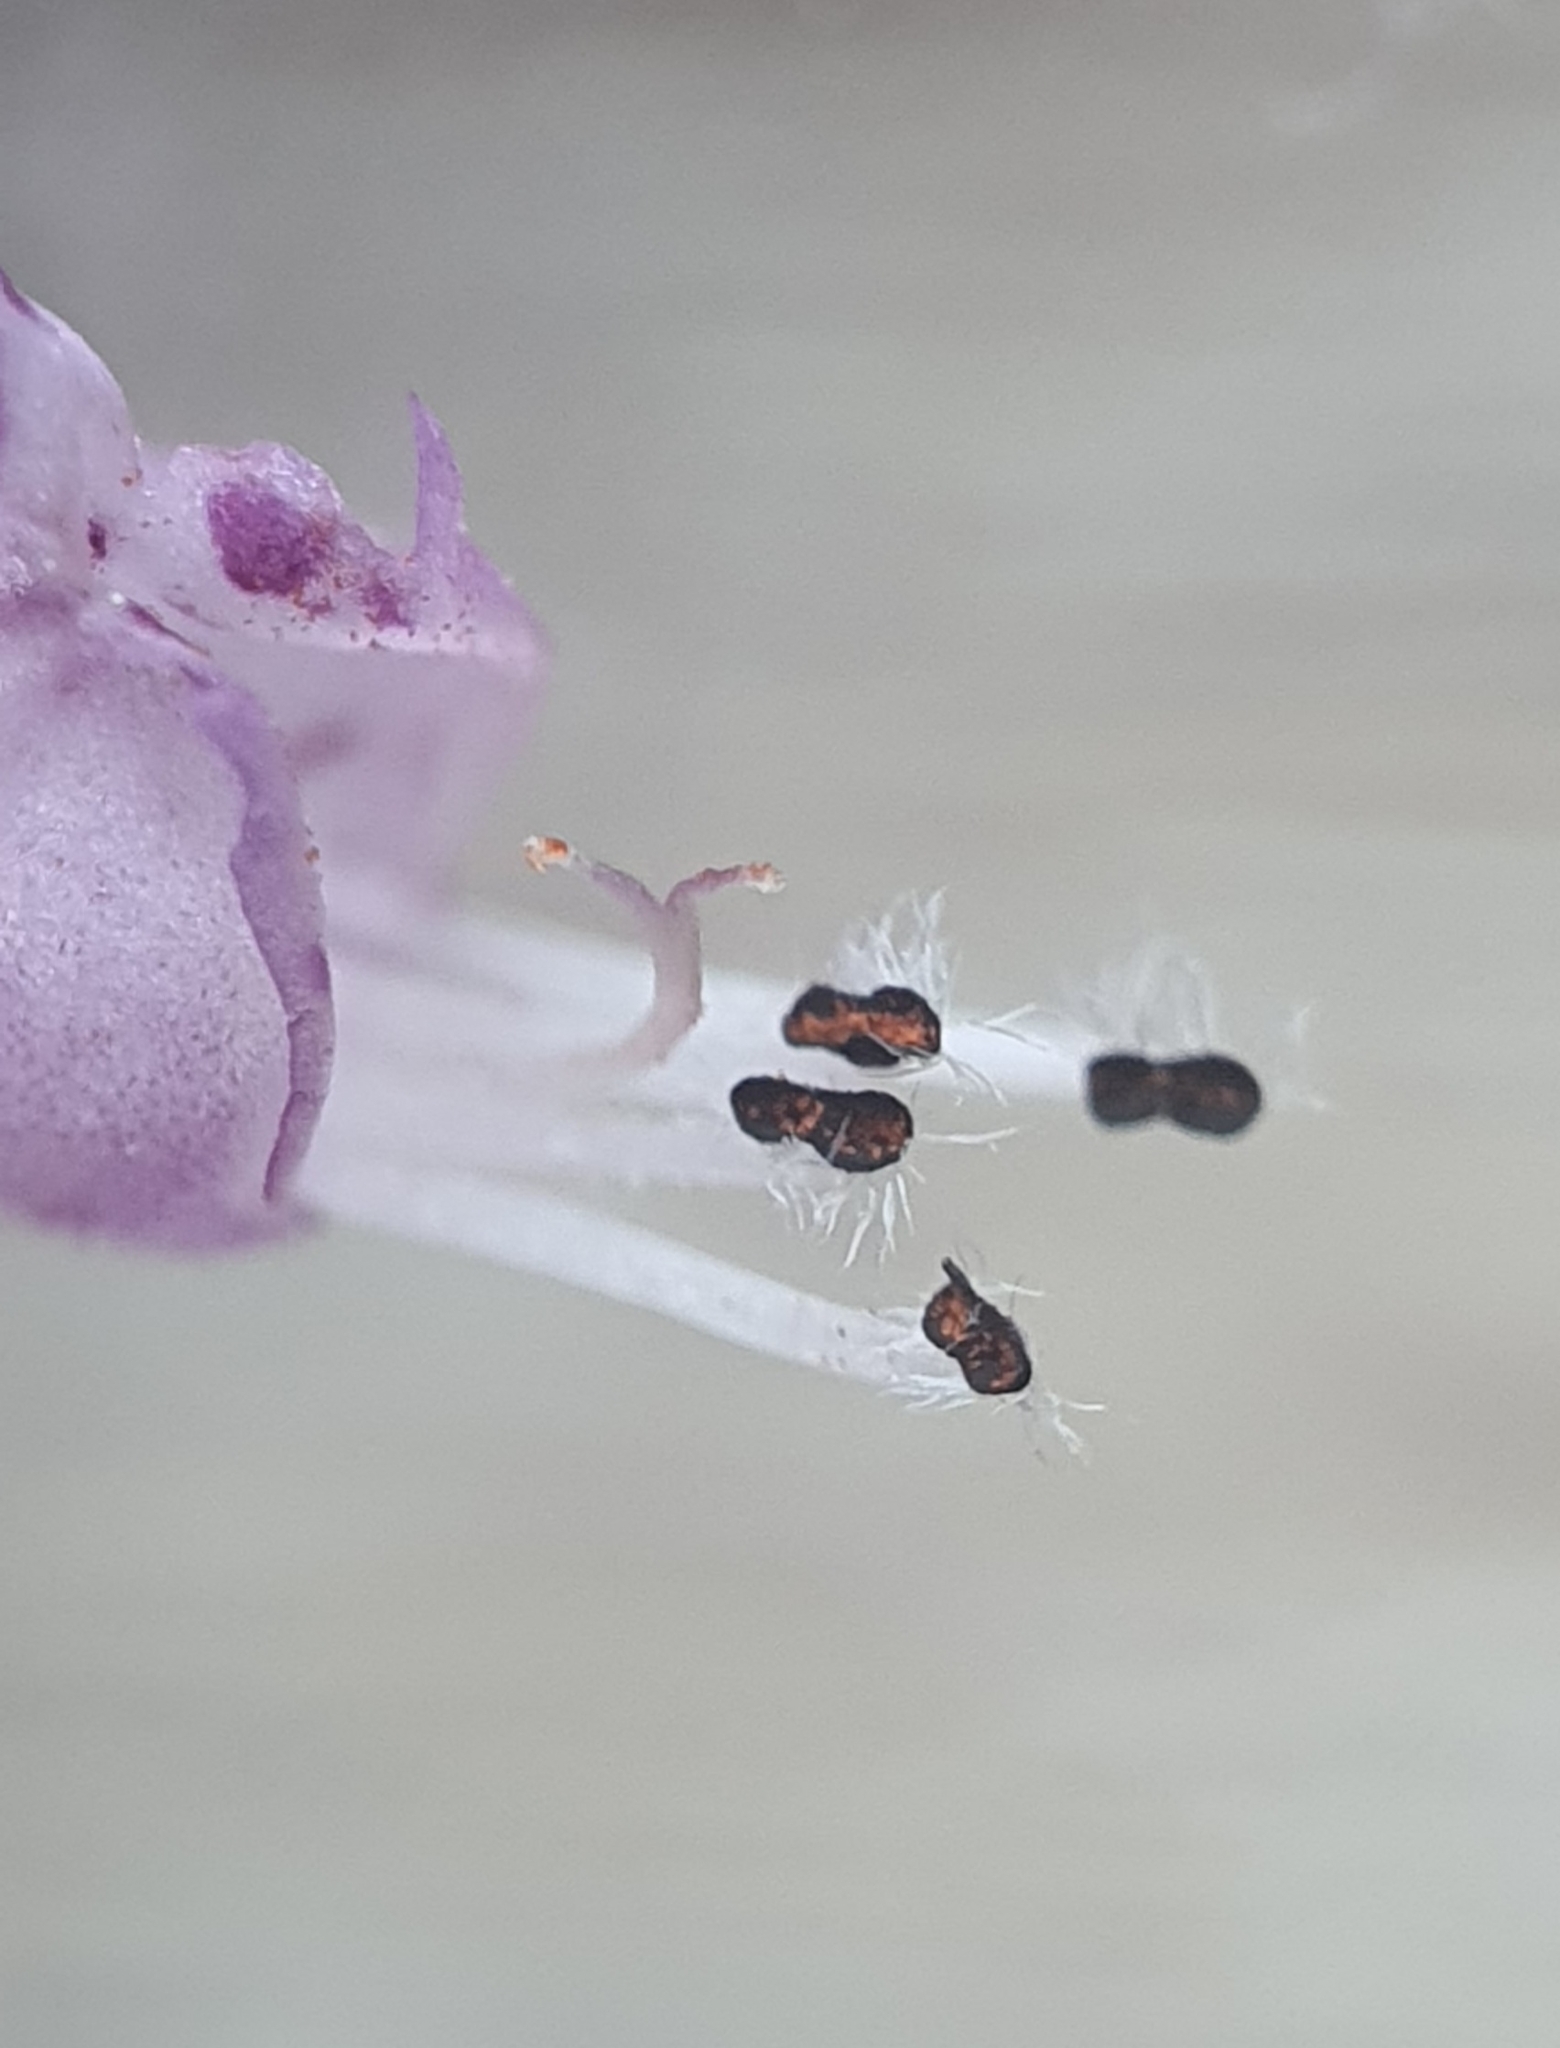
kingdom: Plantae
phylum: Tracheophyta
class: Magnoliopsida
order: Lamiales
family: Lamiaceae
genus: Lamium
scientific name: Lamium purpureum
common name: Red dead-nettle
